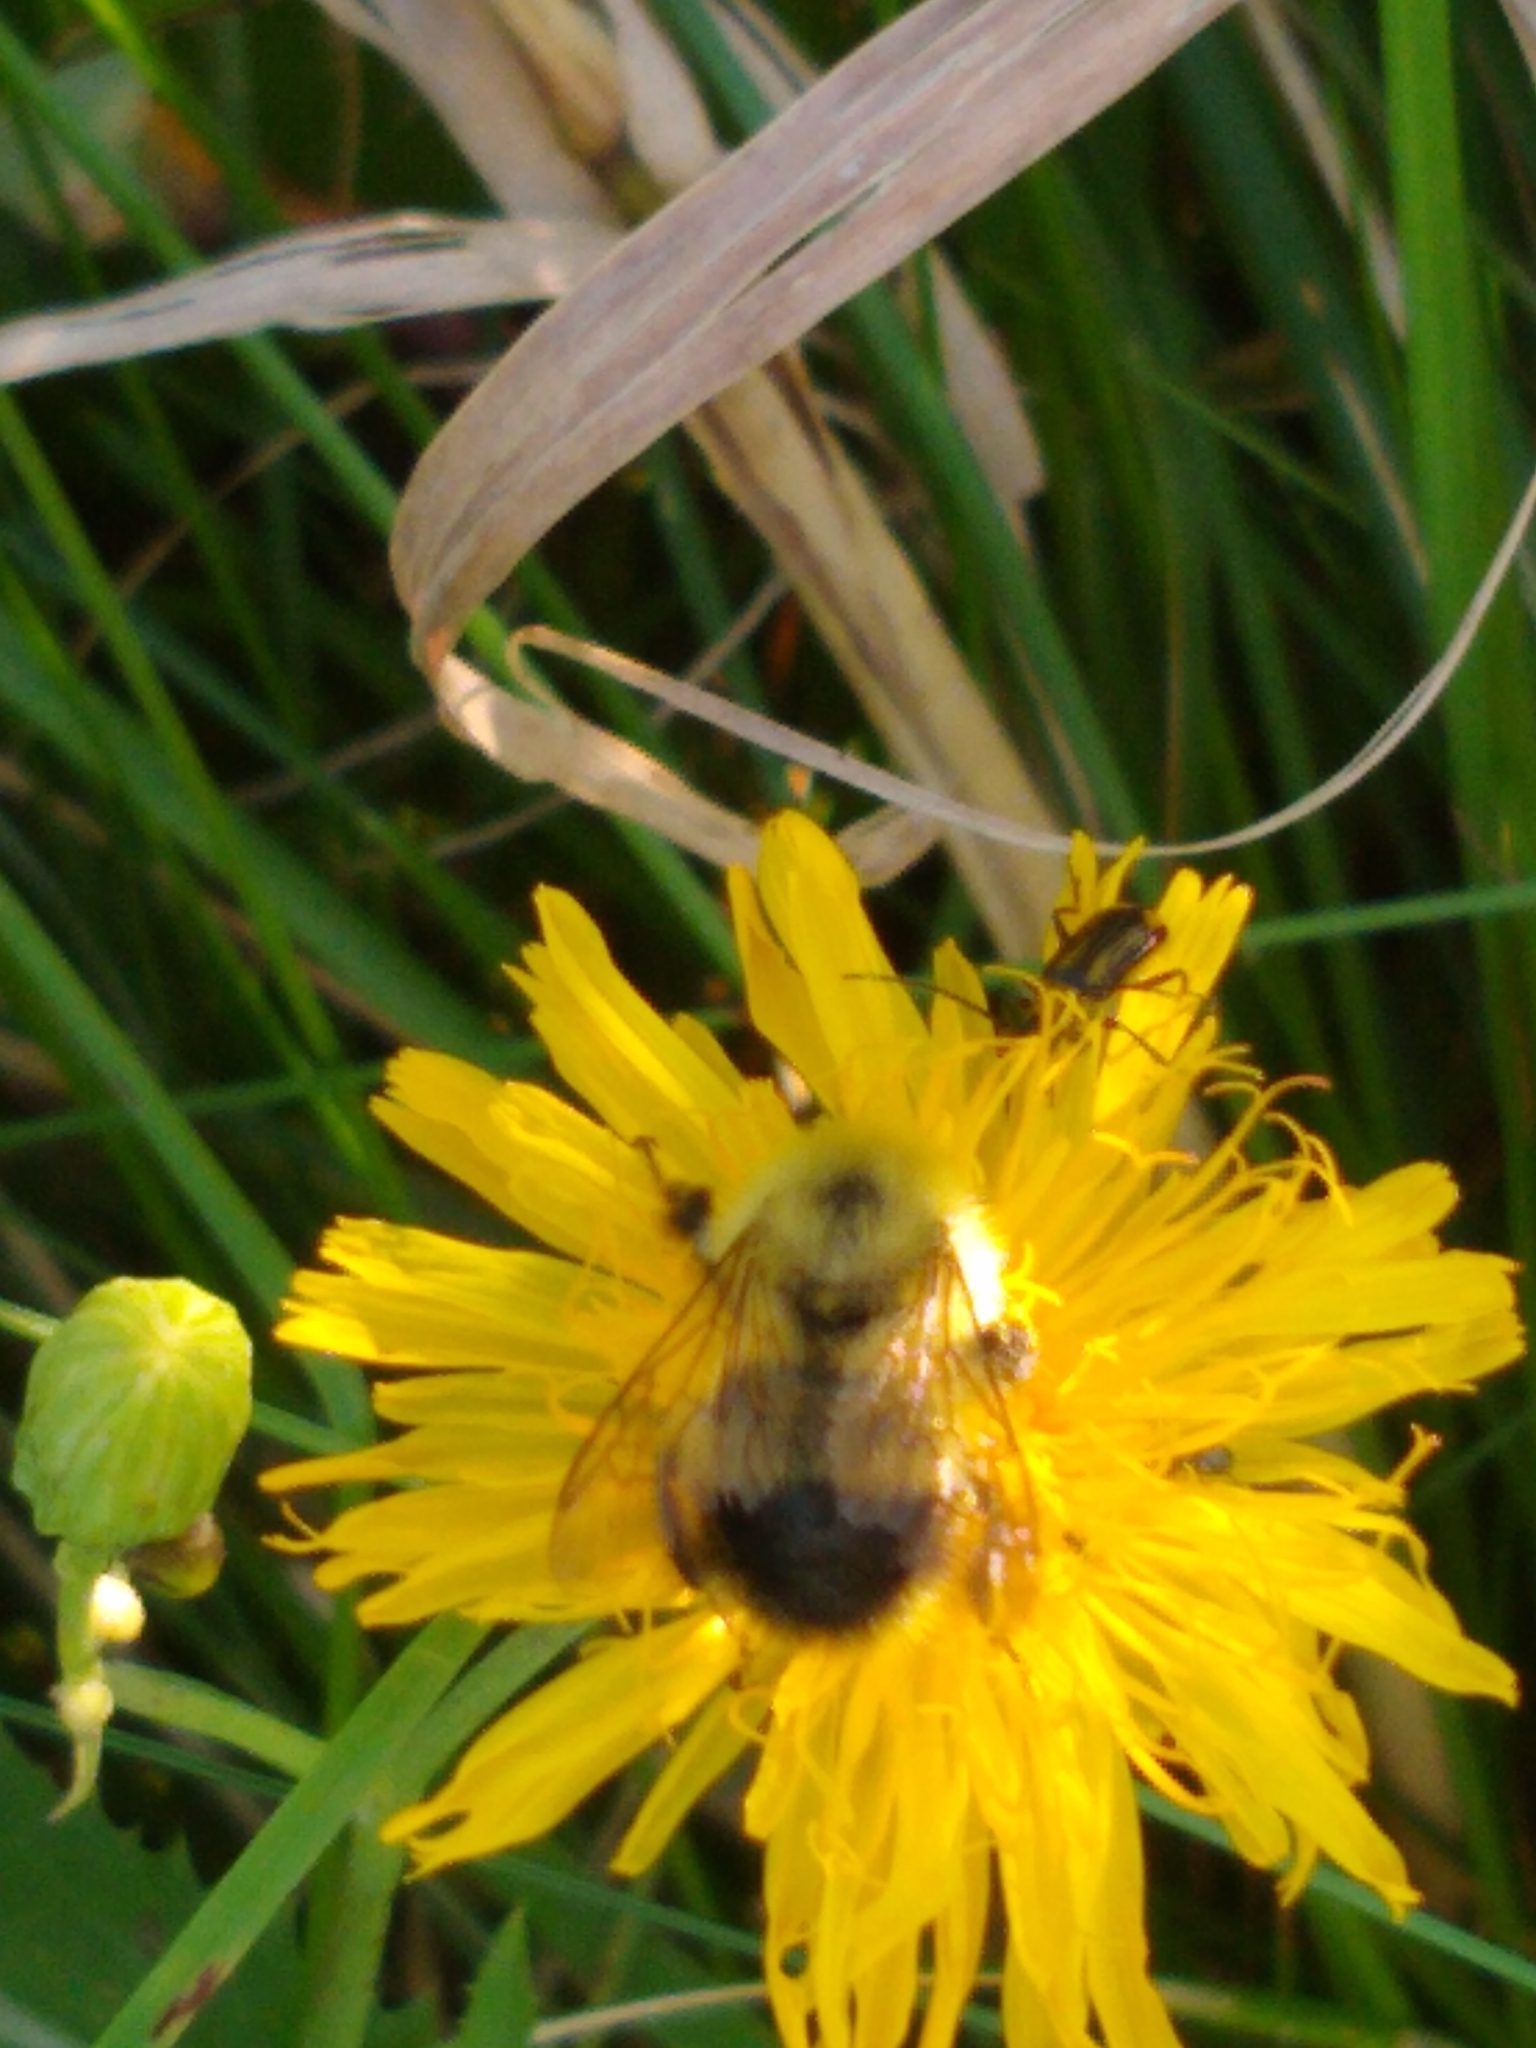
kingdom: Animalia
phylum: Arthropoda
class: Insecta
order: Hymenoptera
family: Apidae
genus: Pyrobombus
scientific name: Pyrobombus
